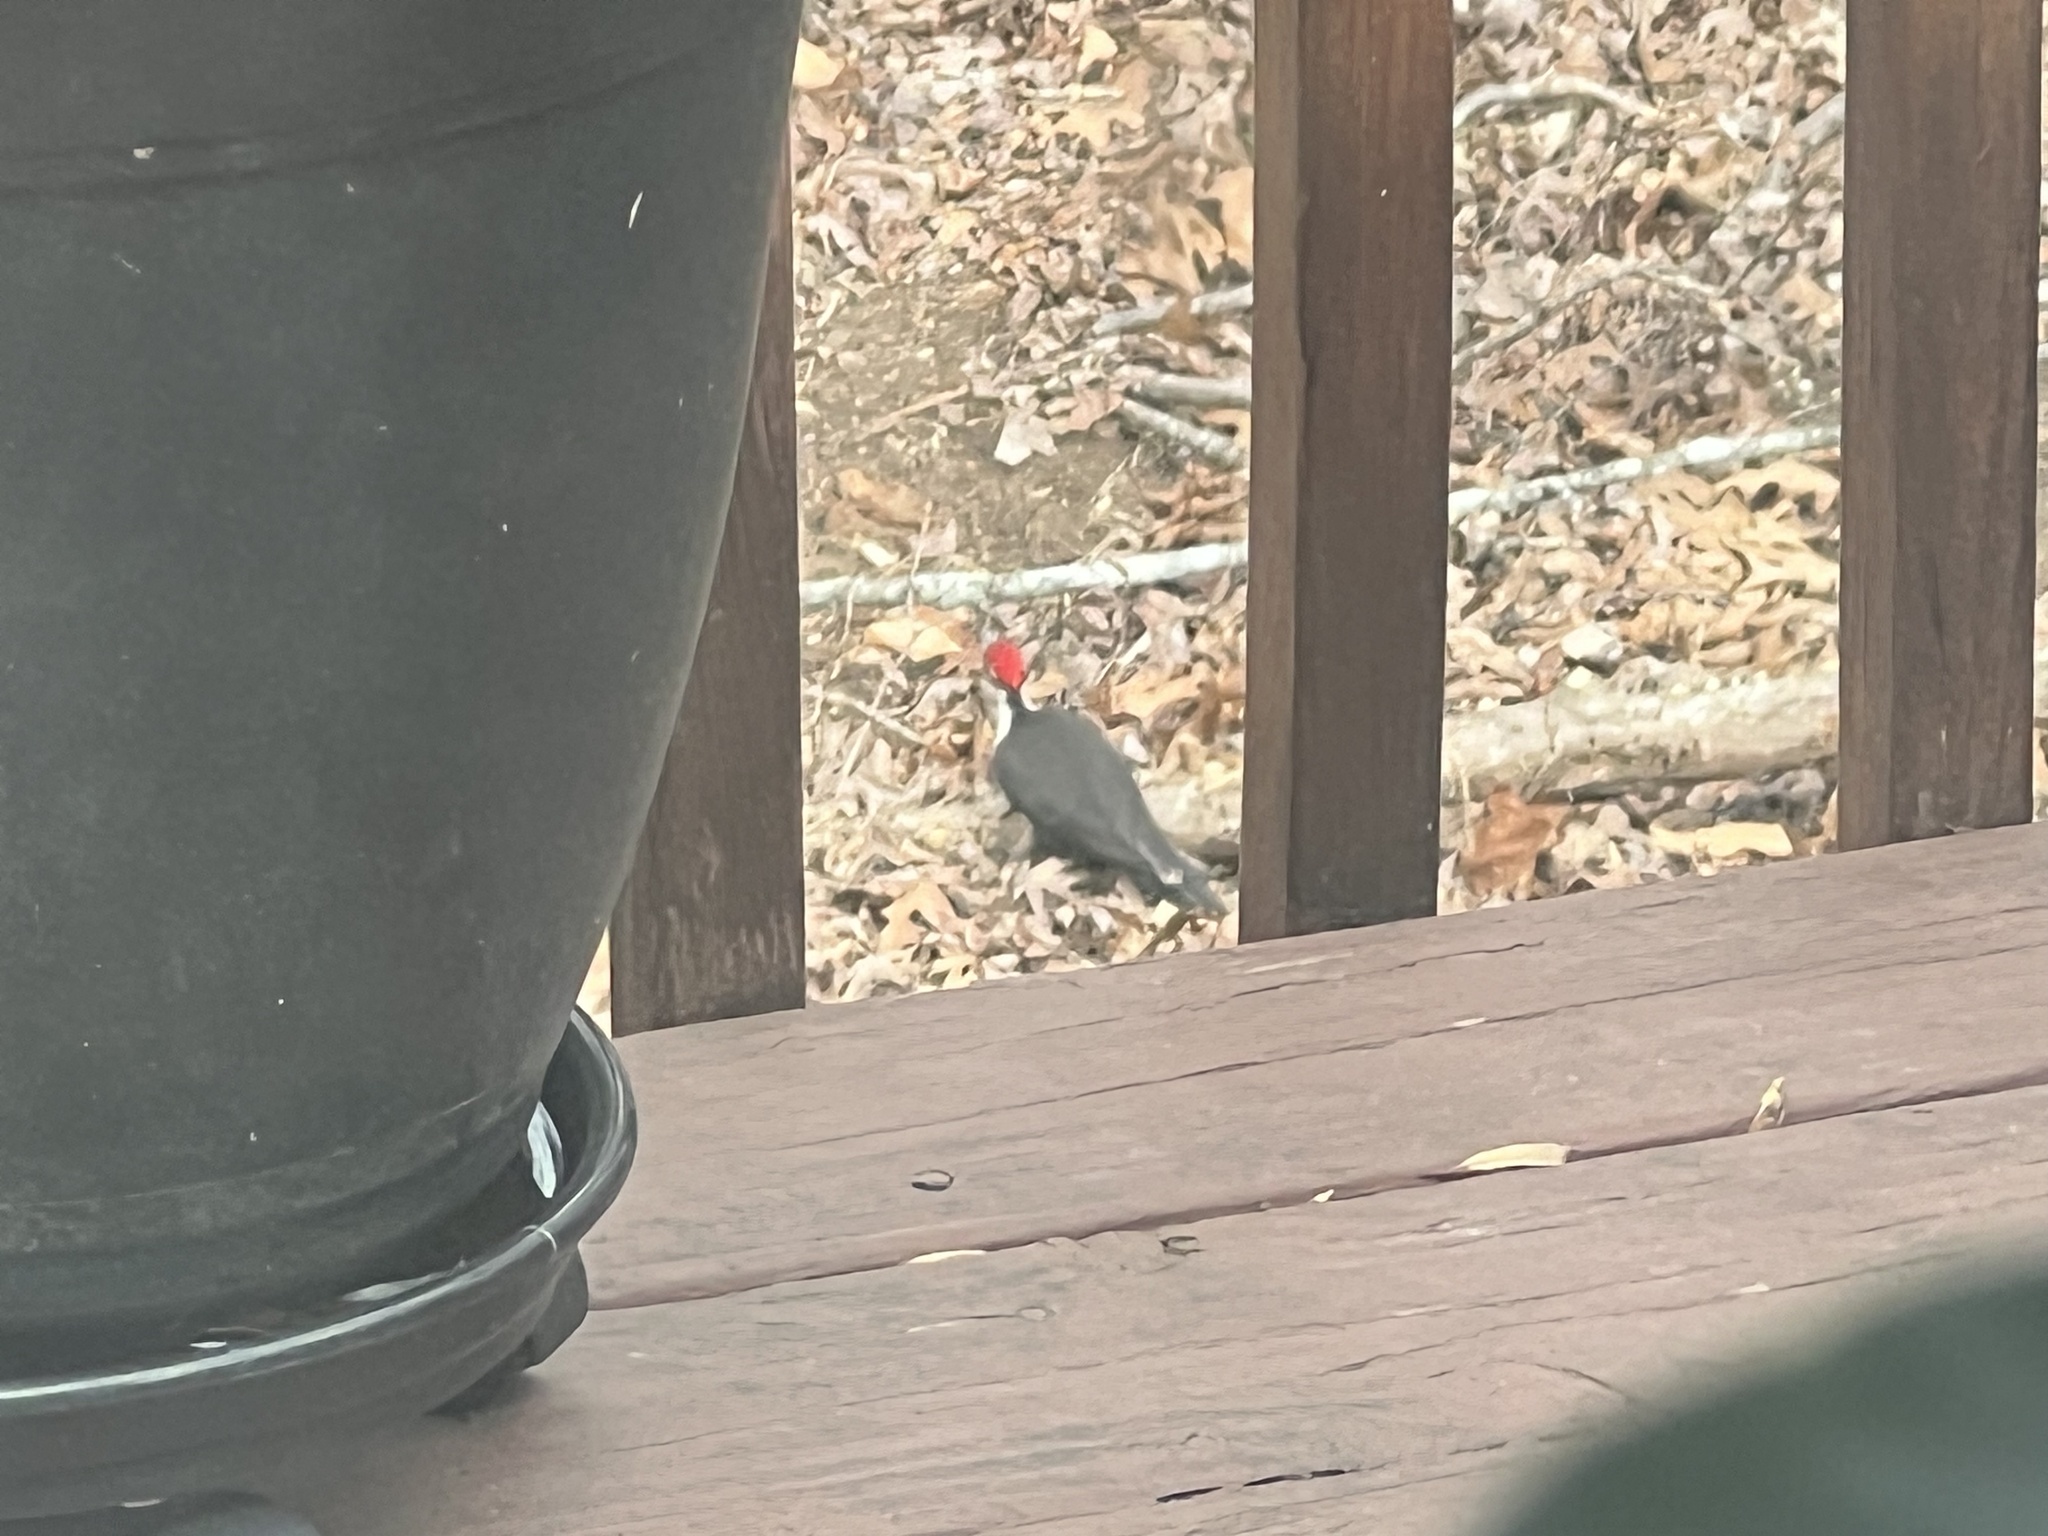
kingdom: Animalia
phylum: Chordata
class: Aves
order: Piciformes
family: Picidae
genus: Dryocopus
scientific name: Dryocopus pileatus
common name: Pileated woodpecker
